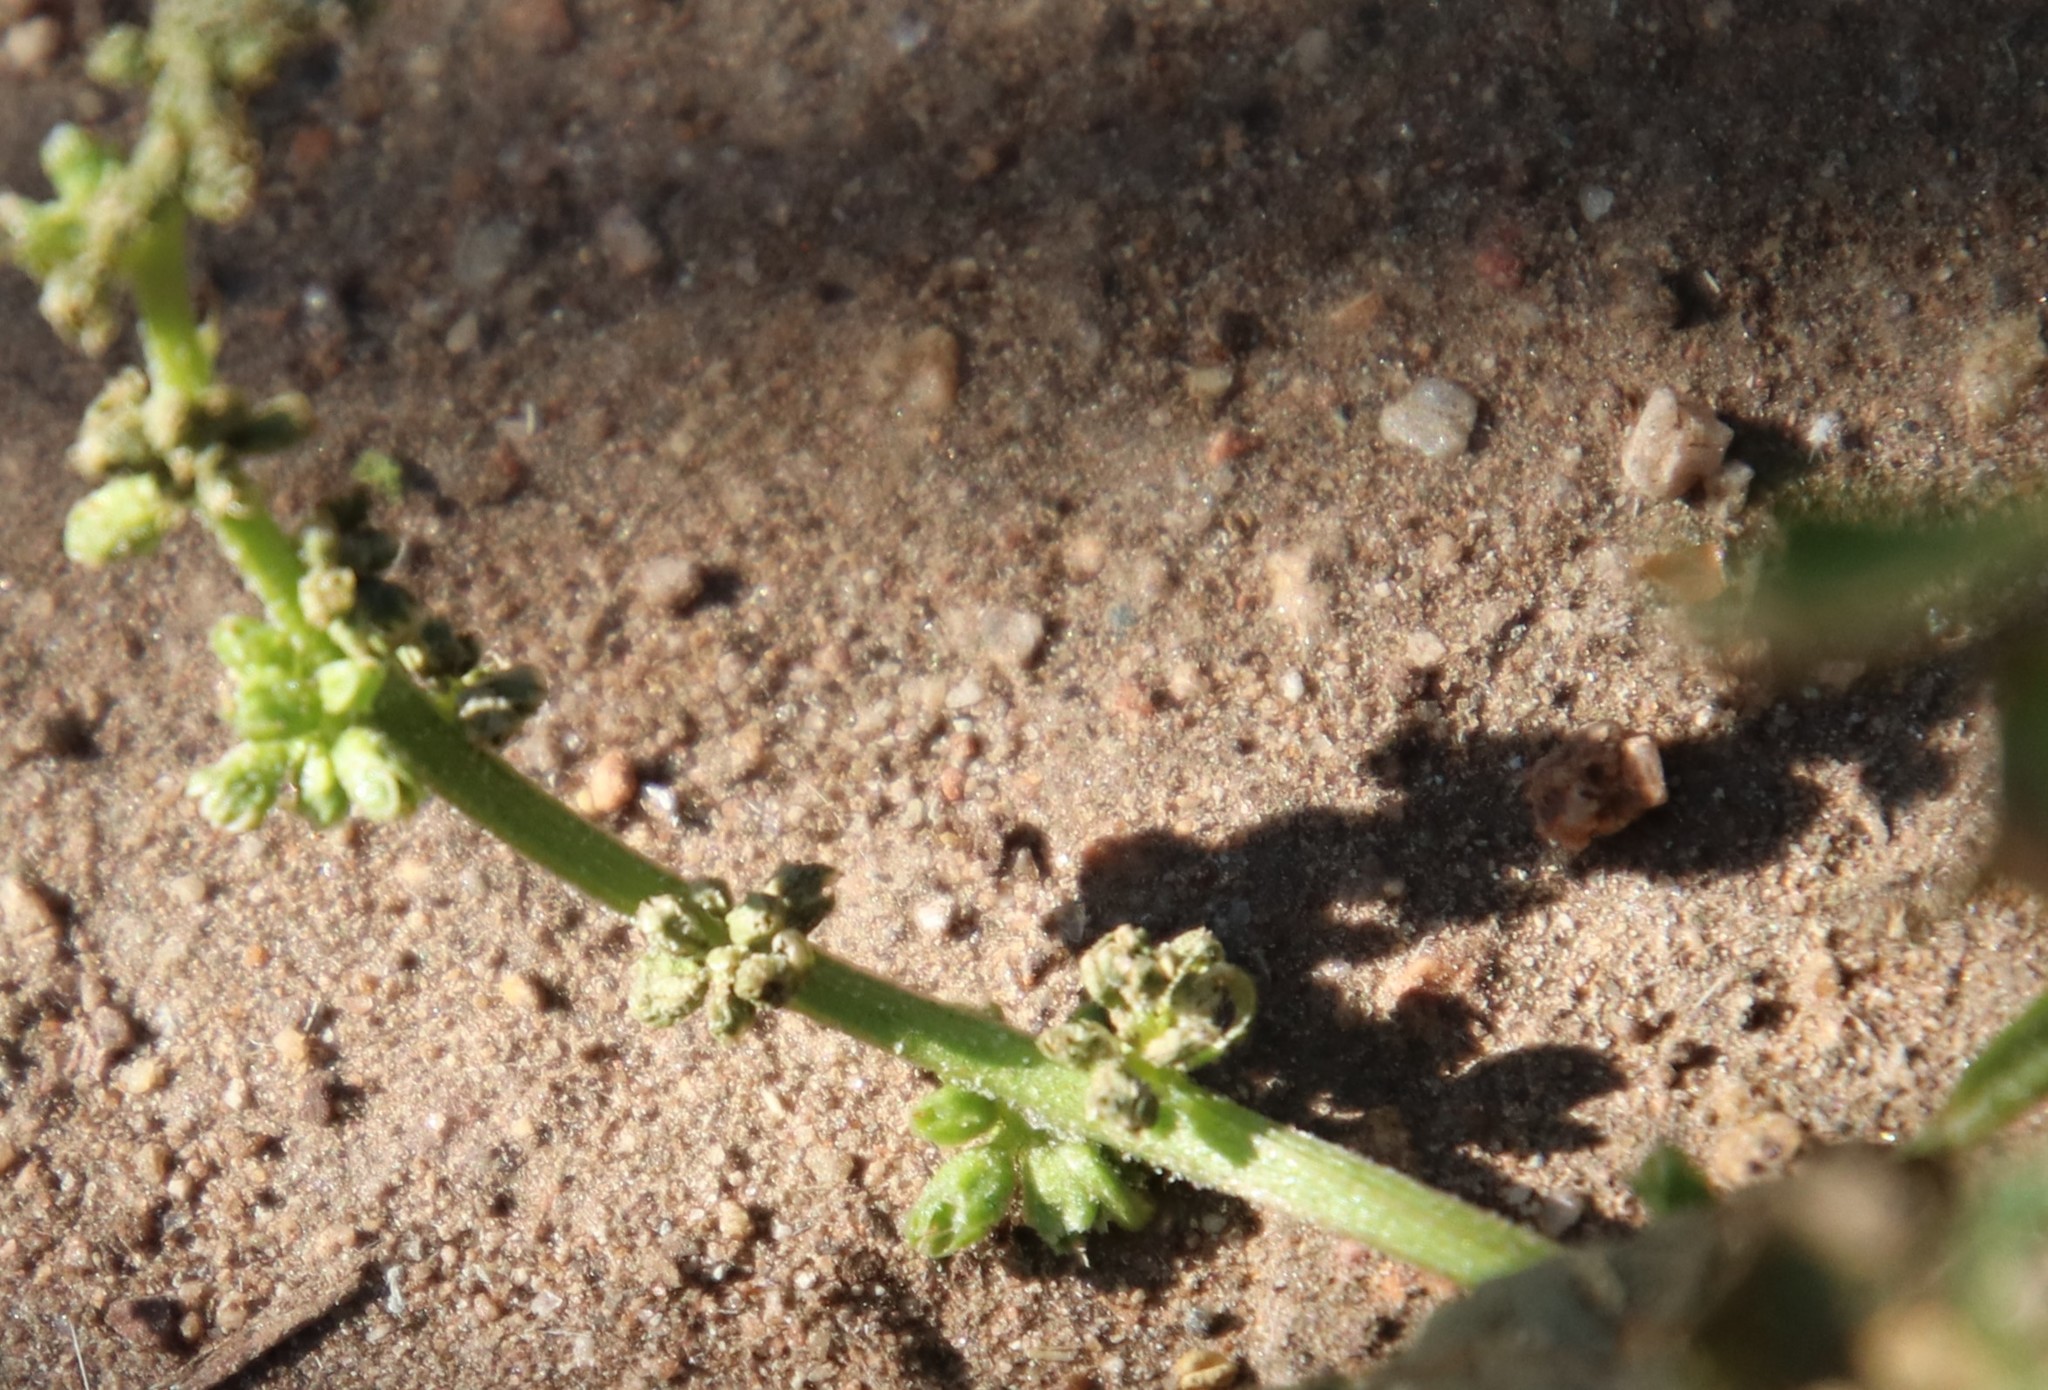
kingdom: Plantae
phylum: Tracheophyta
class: Magnoliopsida
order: Caryophyllales
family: Amaranthaceae
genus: Blitum
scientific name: Blitum californicum
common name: California goosefoot
